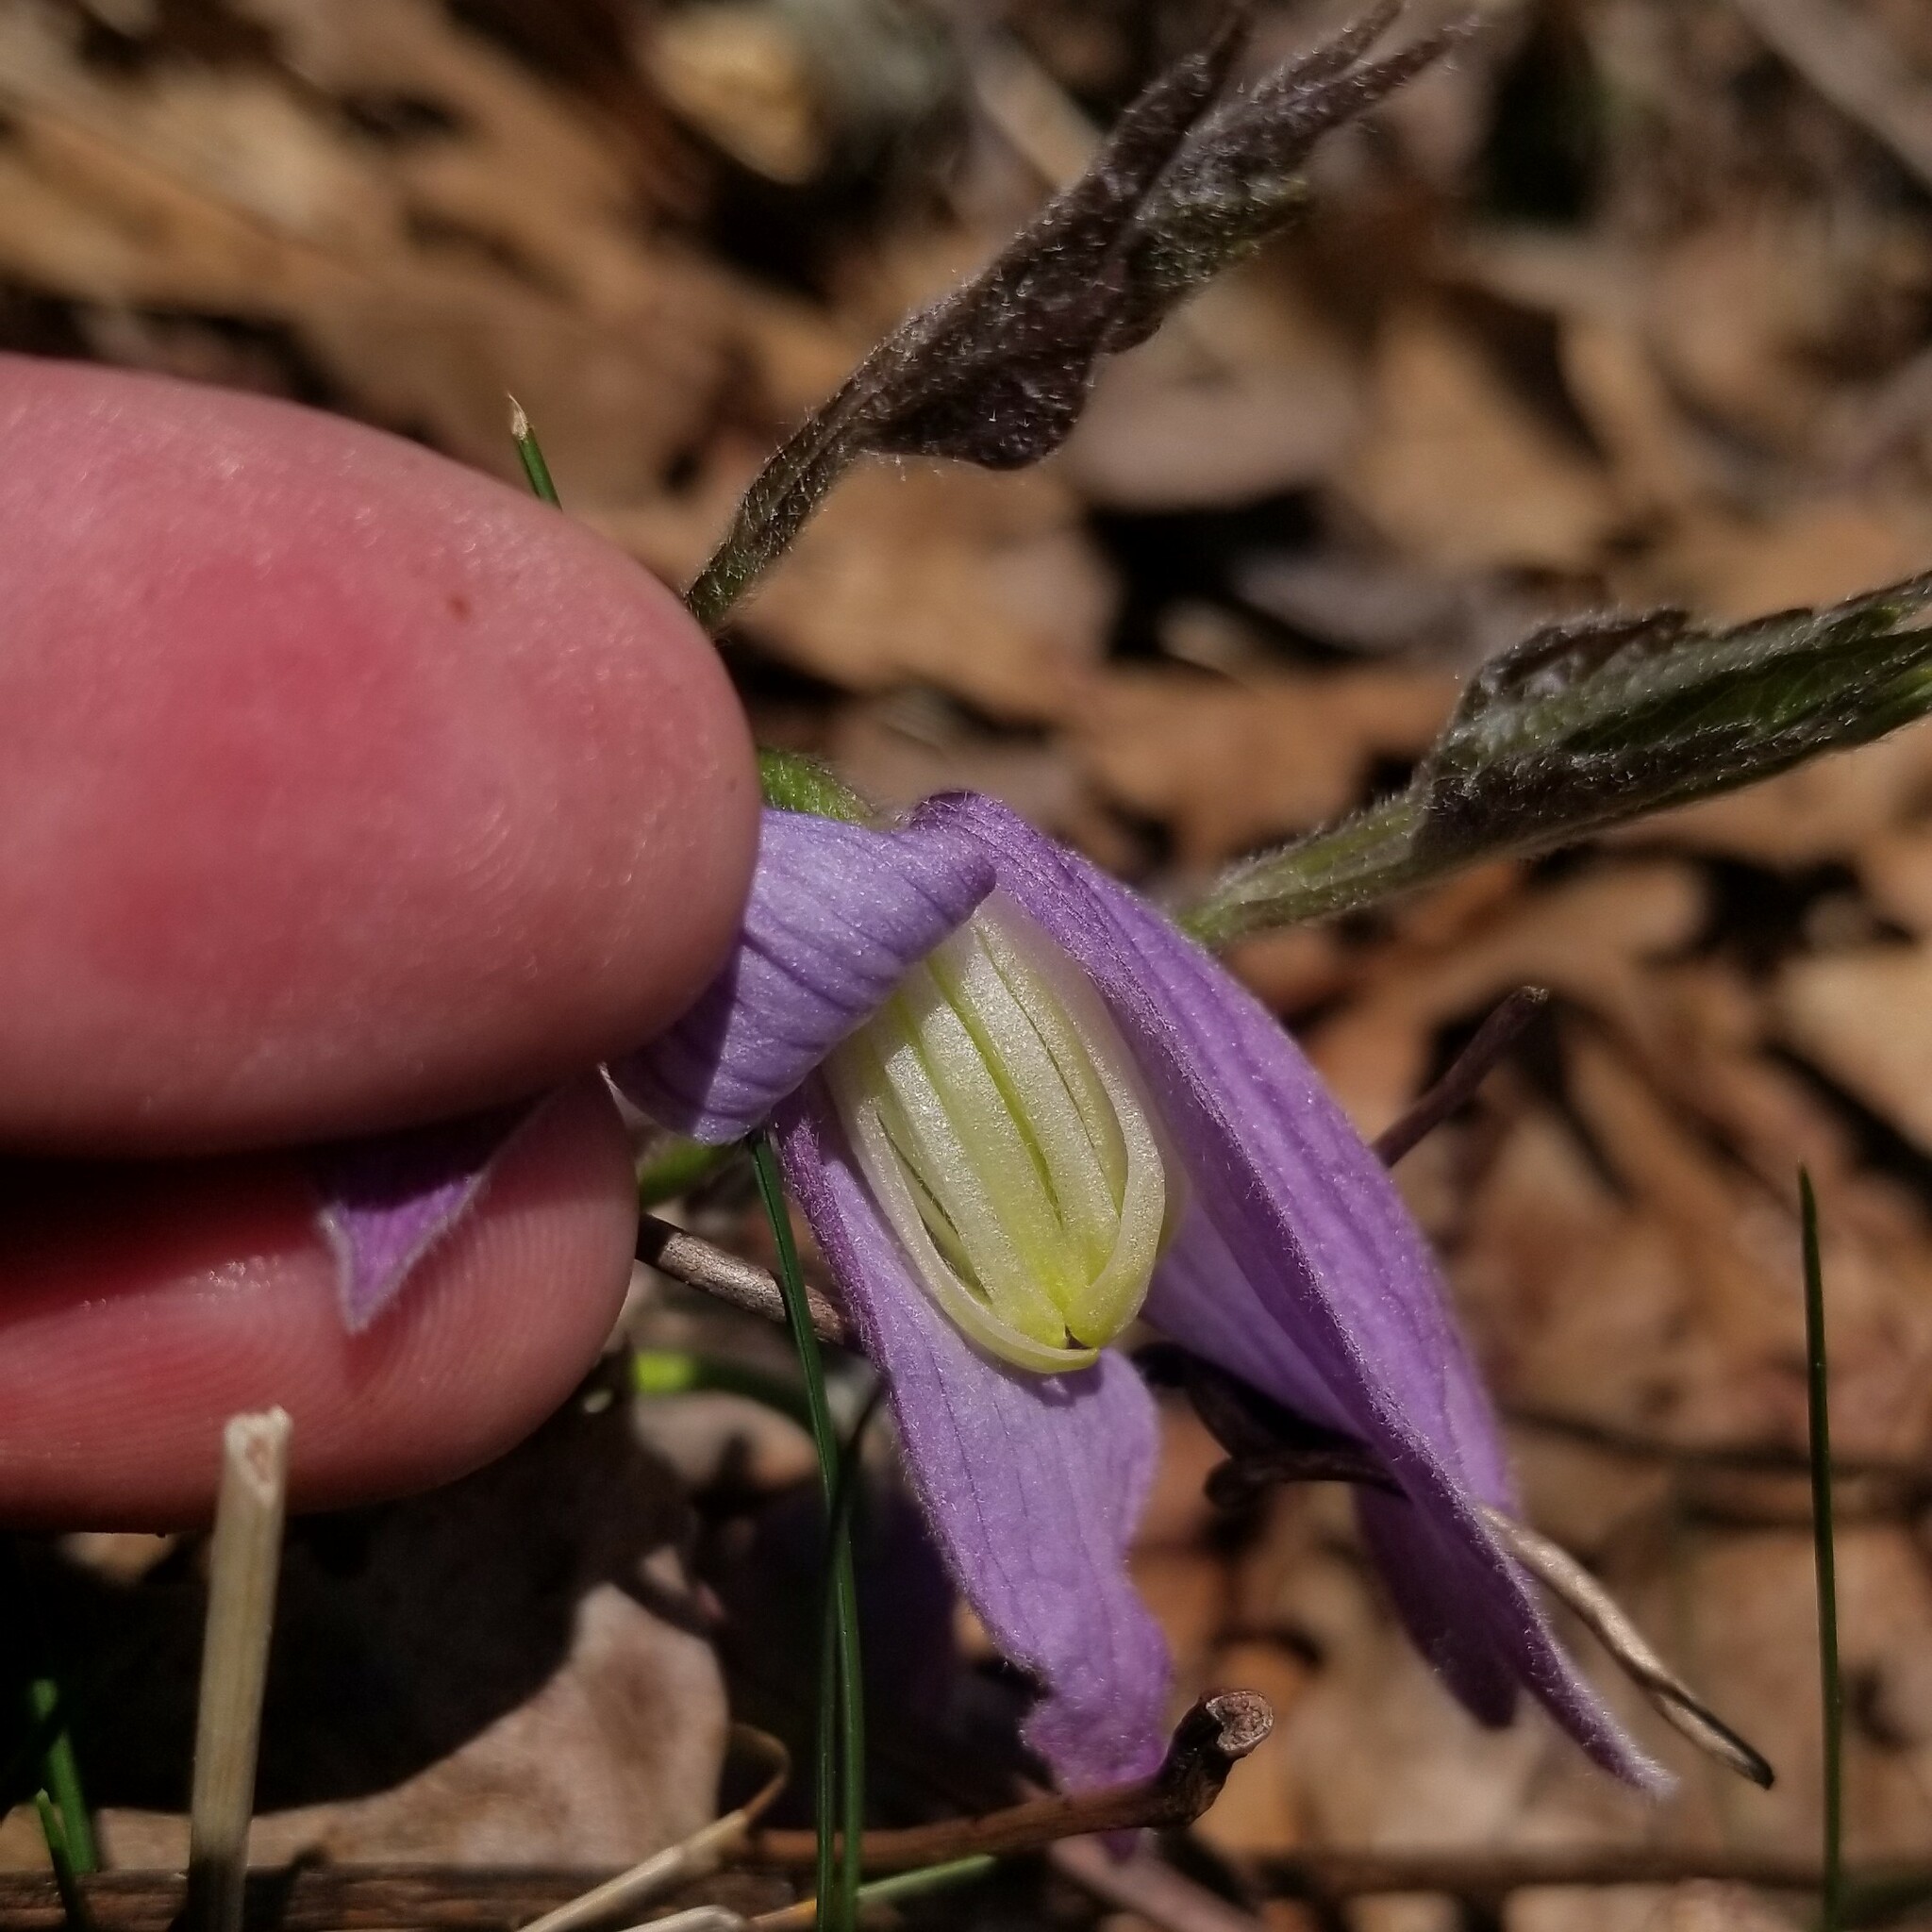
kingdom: Plantae
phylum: Tracheophyta
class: Magnoliopsida
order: Ranunculales
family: Ranunculaceae
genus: Clematis
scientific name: Clematis occidentalis
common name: Purple clematis
